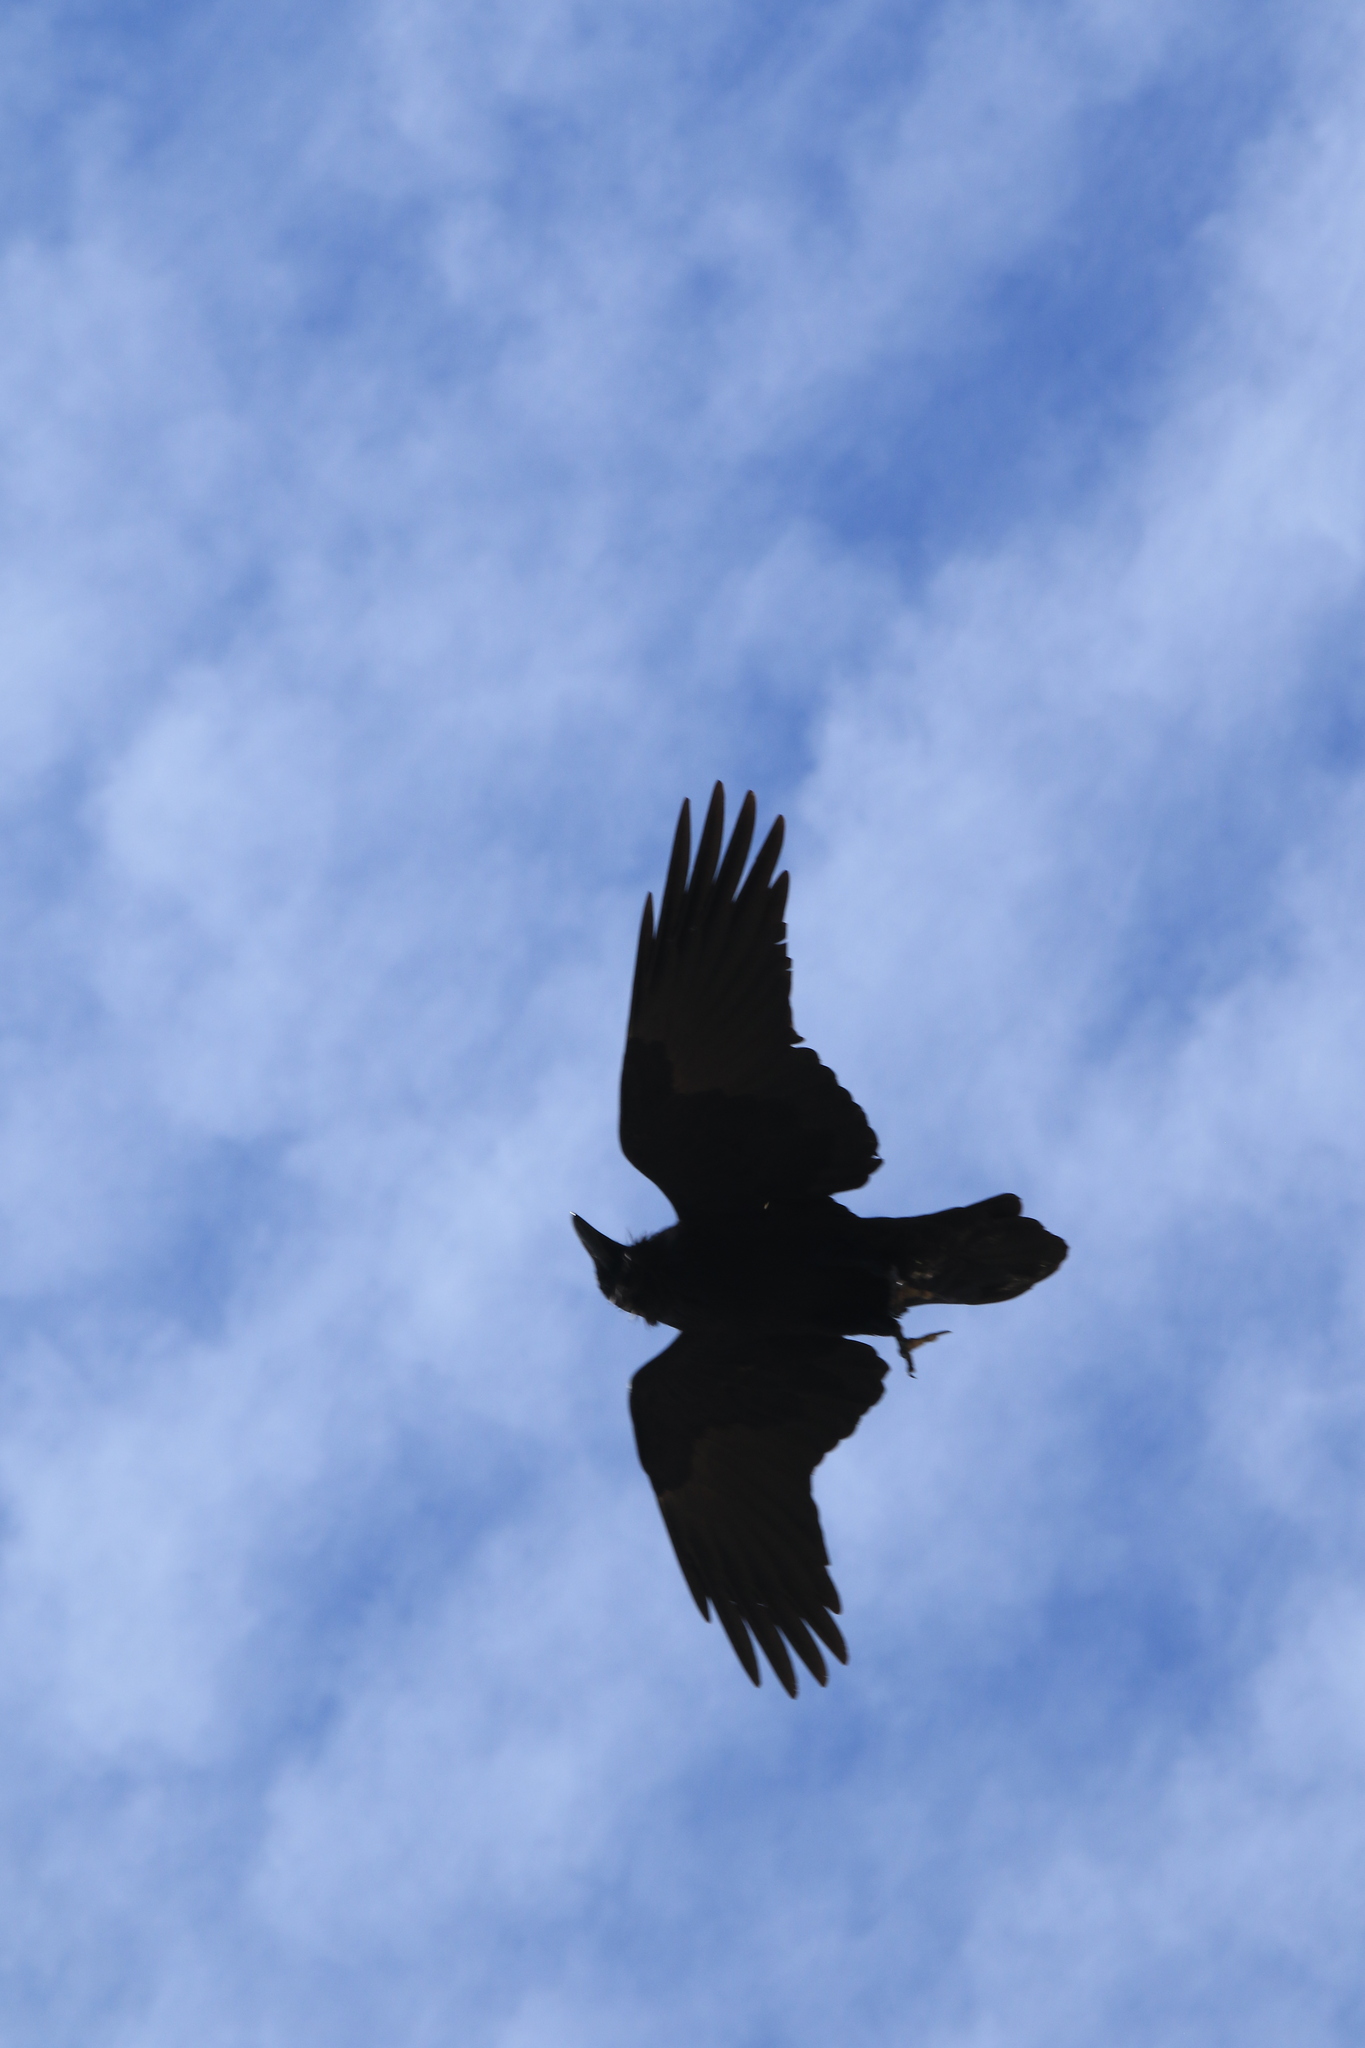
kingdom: Animalia
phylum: Chordata
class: Aves
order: Passeriformes
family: Corvidae
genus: Corvus
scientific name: Corvus corax
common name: Common raven
